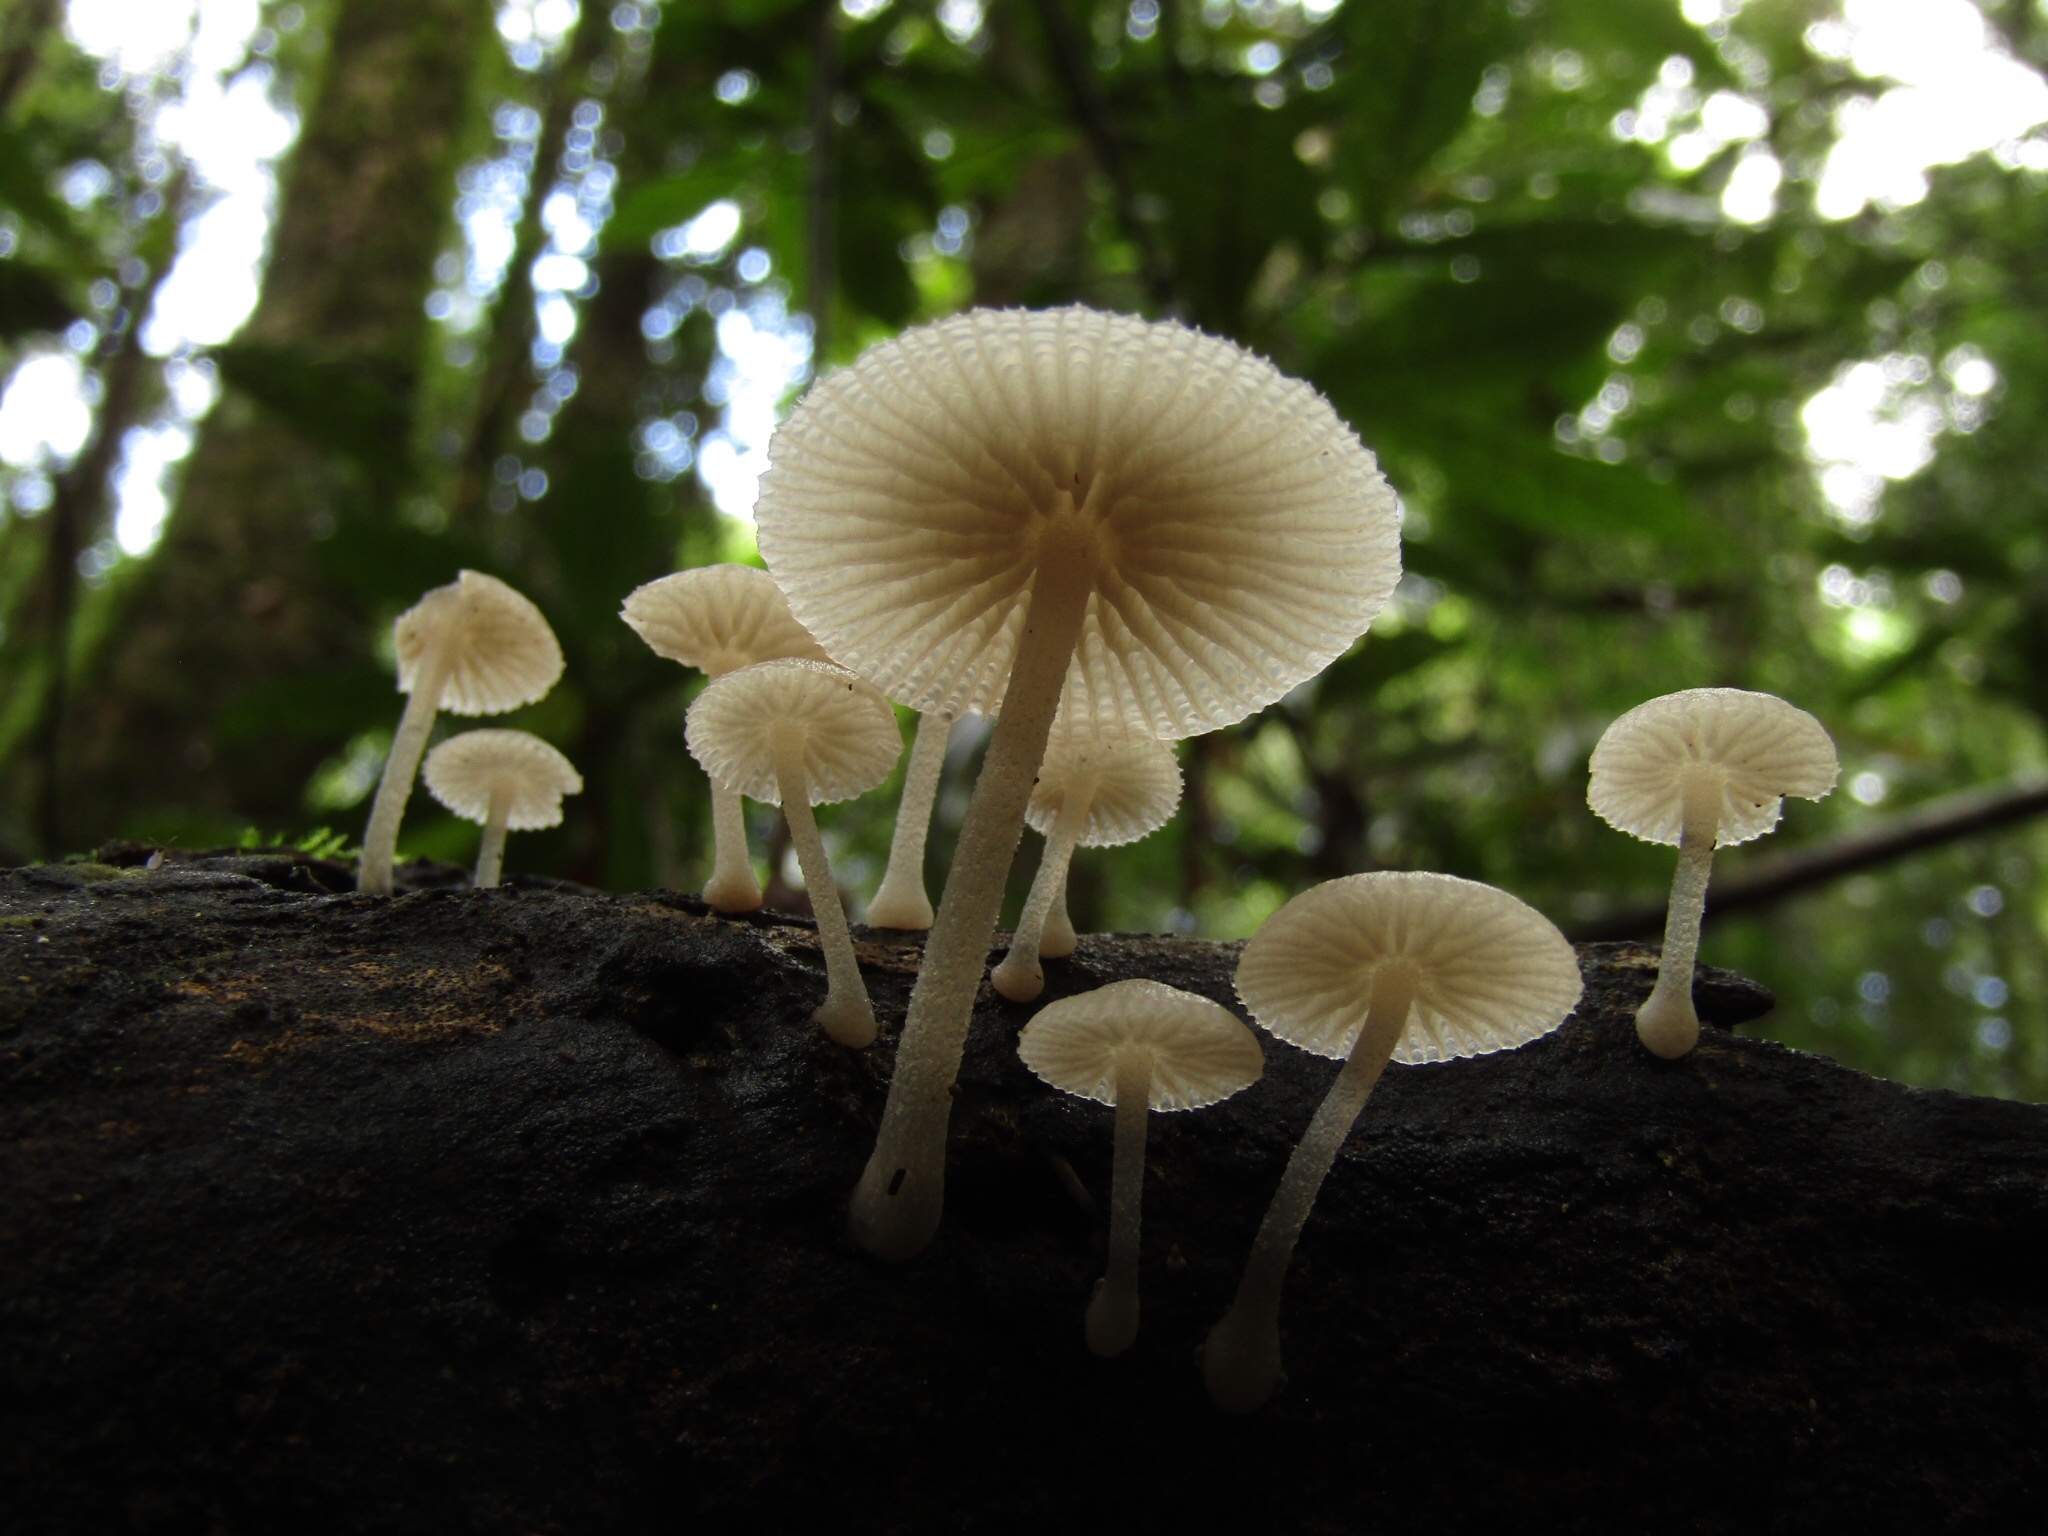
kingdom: Fungi
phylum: Basidiomycota
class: Agaricomycetes
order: Agaricales
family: Mycenaceae
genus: Filoboletus
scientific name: Filoboletus manipularis
